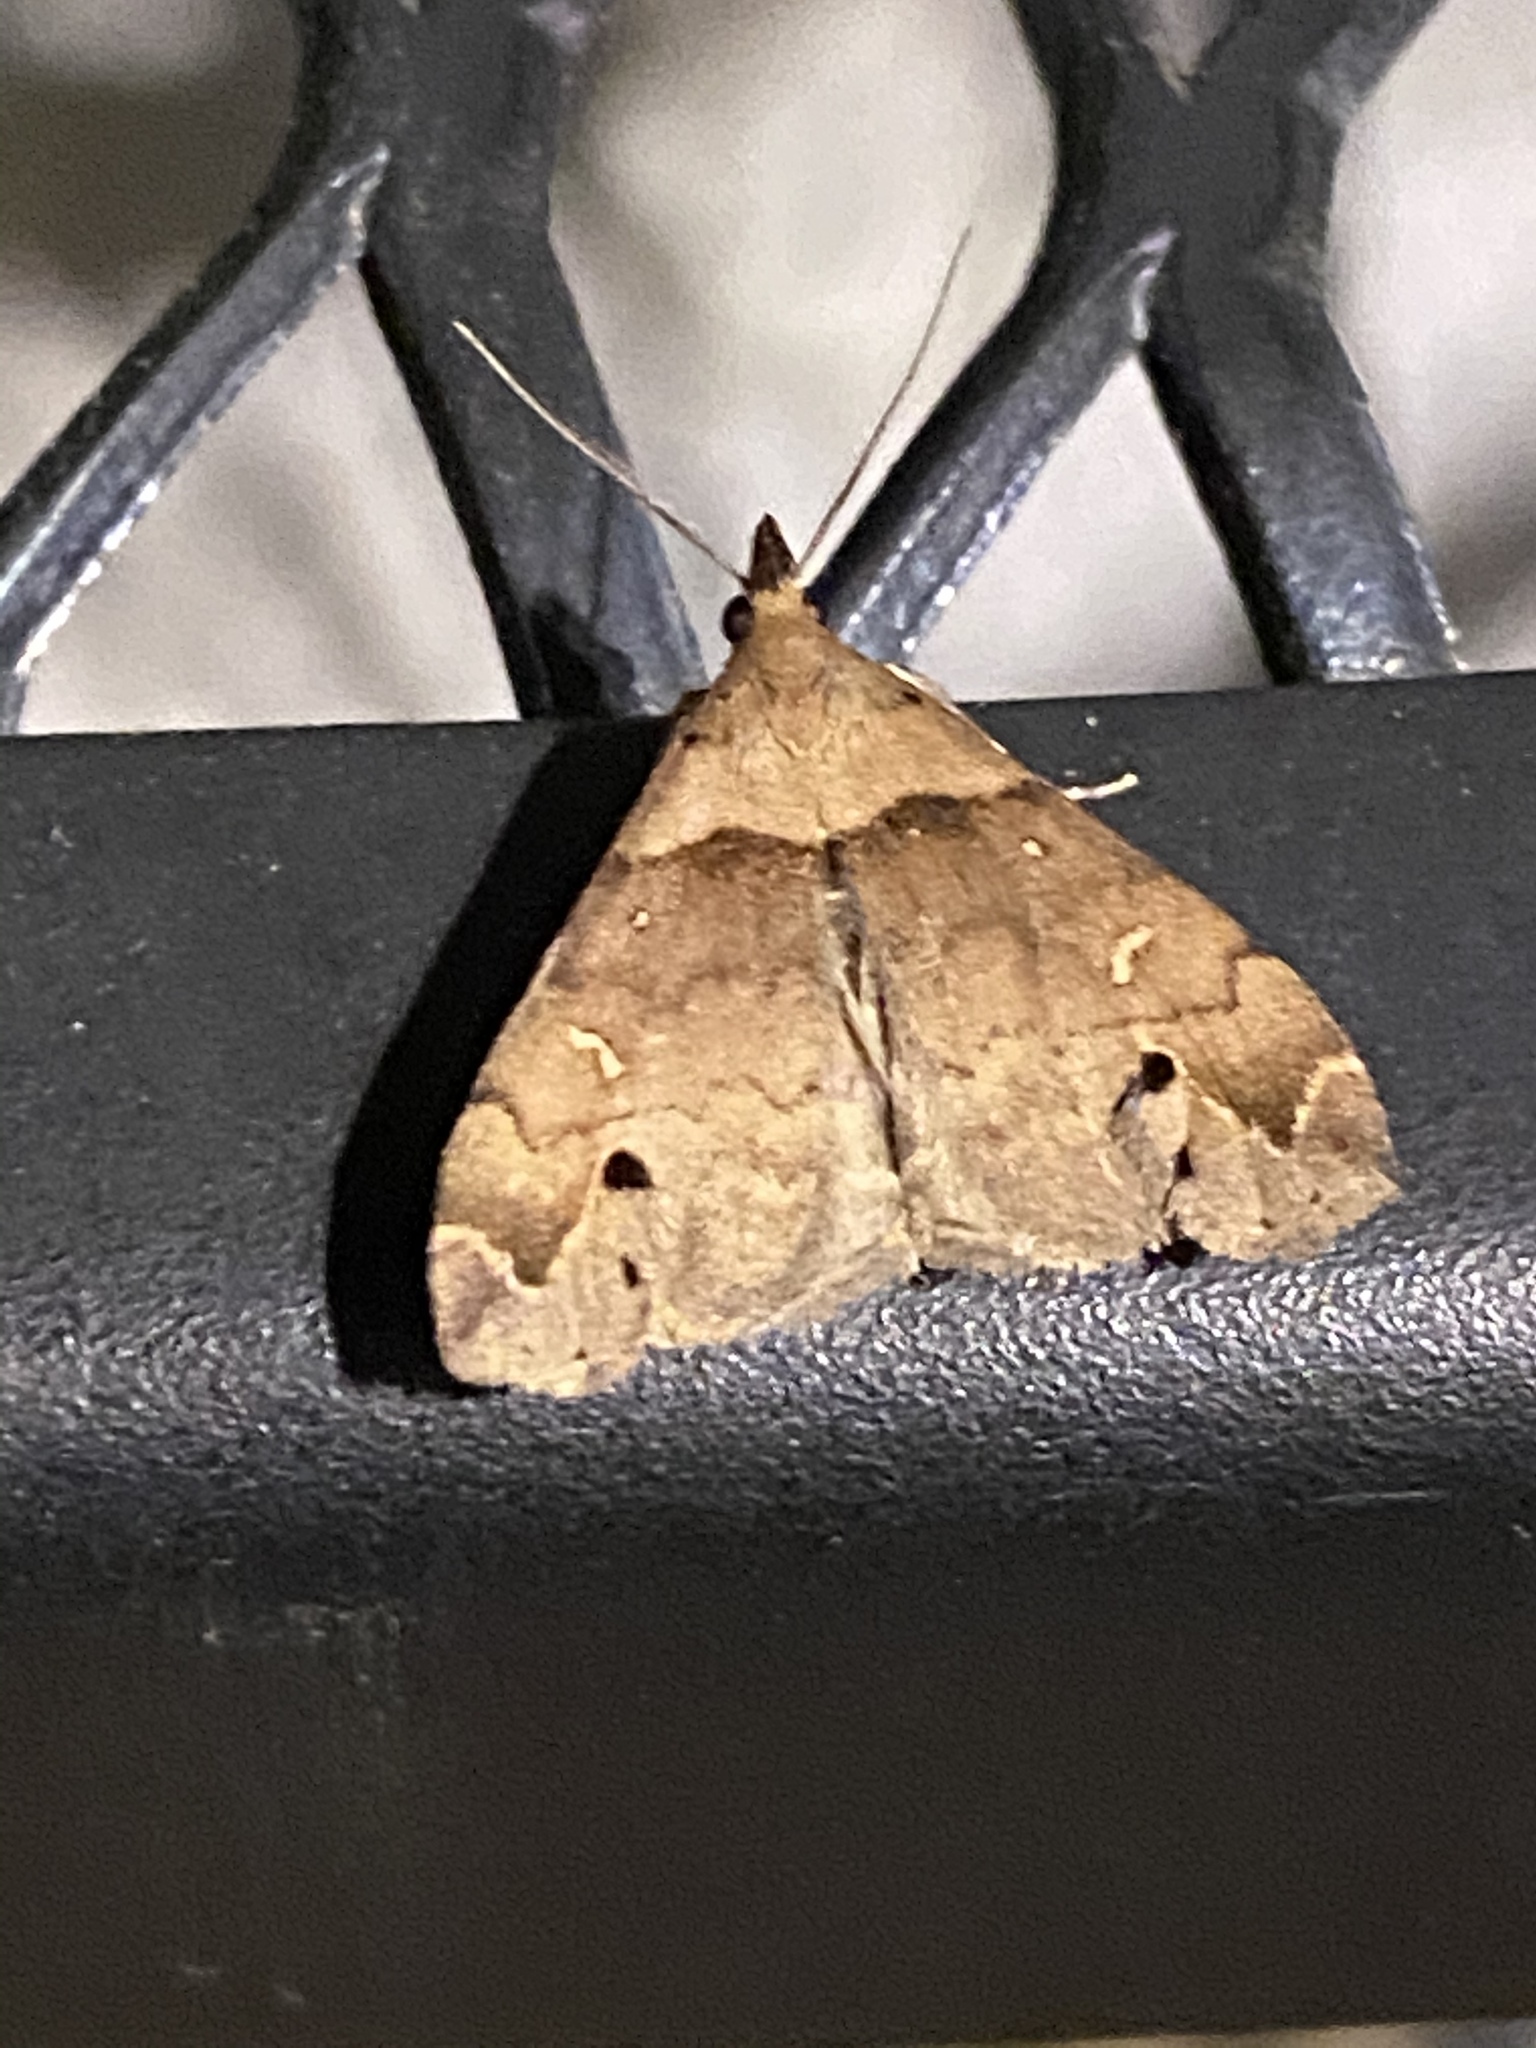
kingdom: Animalia
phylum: Arthropoda
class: Insecta
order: Lepidoptera
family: Erebidae
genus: Lascoria
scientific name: Lascoria ambigualis
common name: Ambiguous moth
